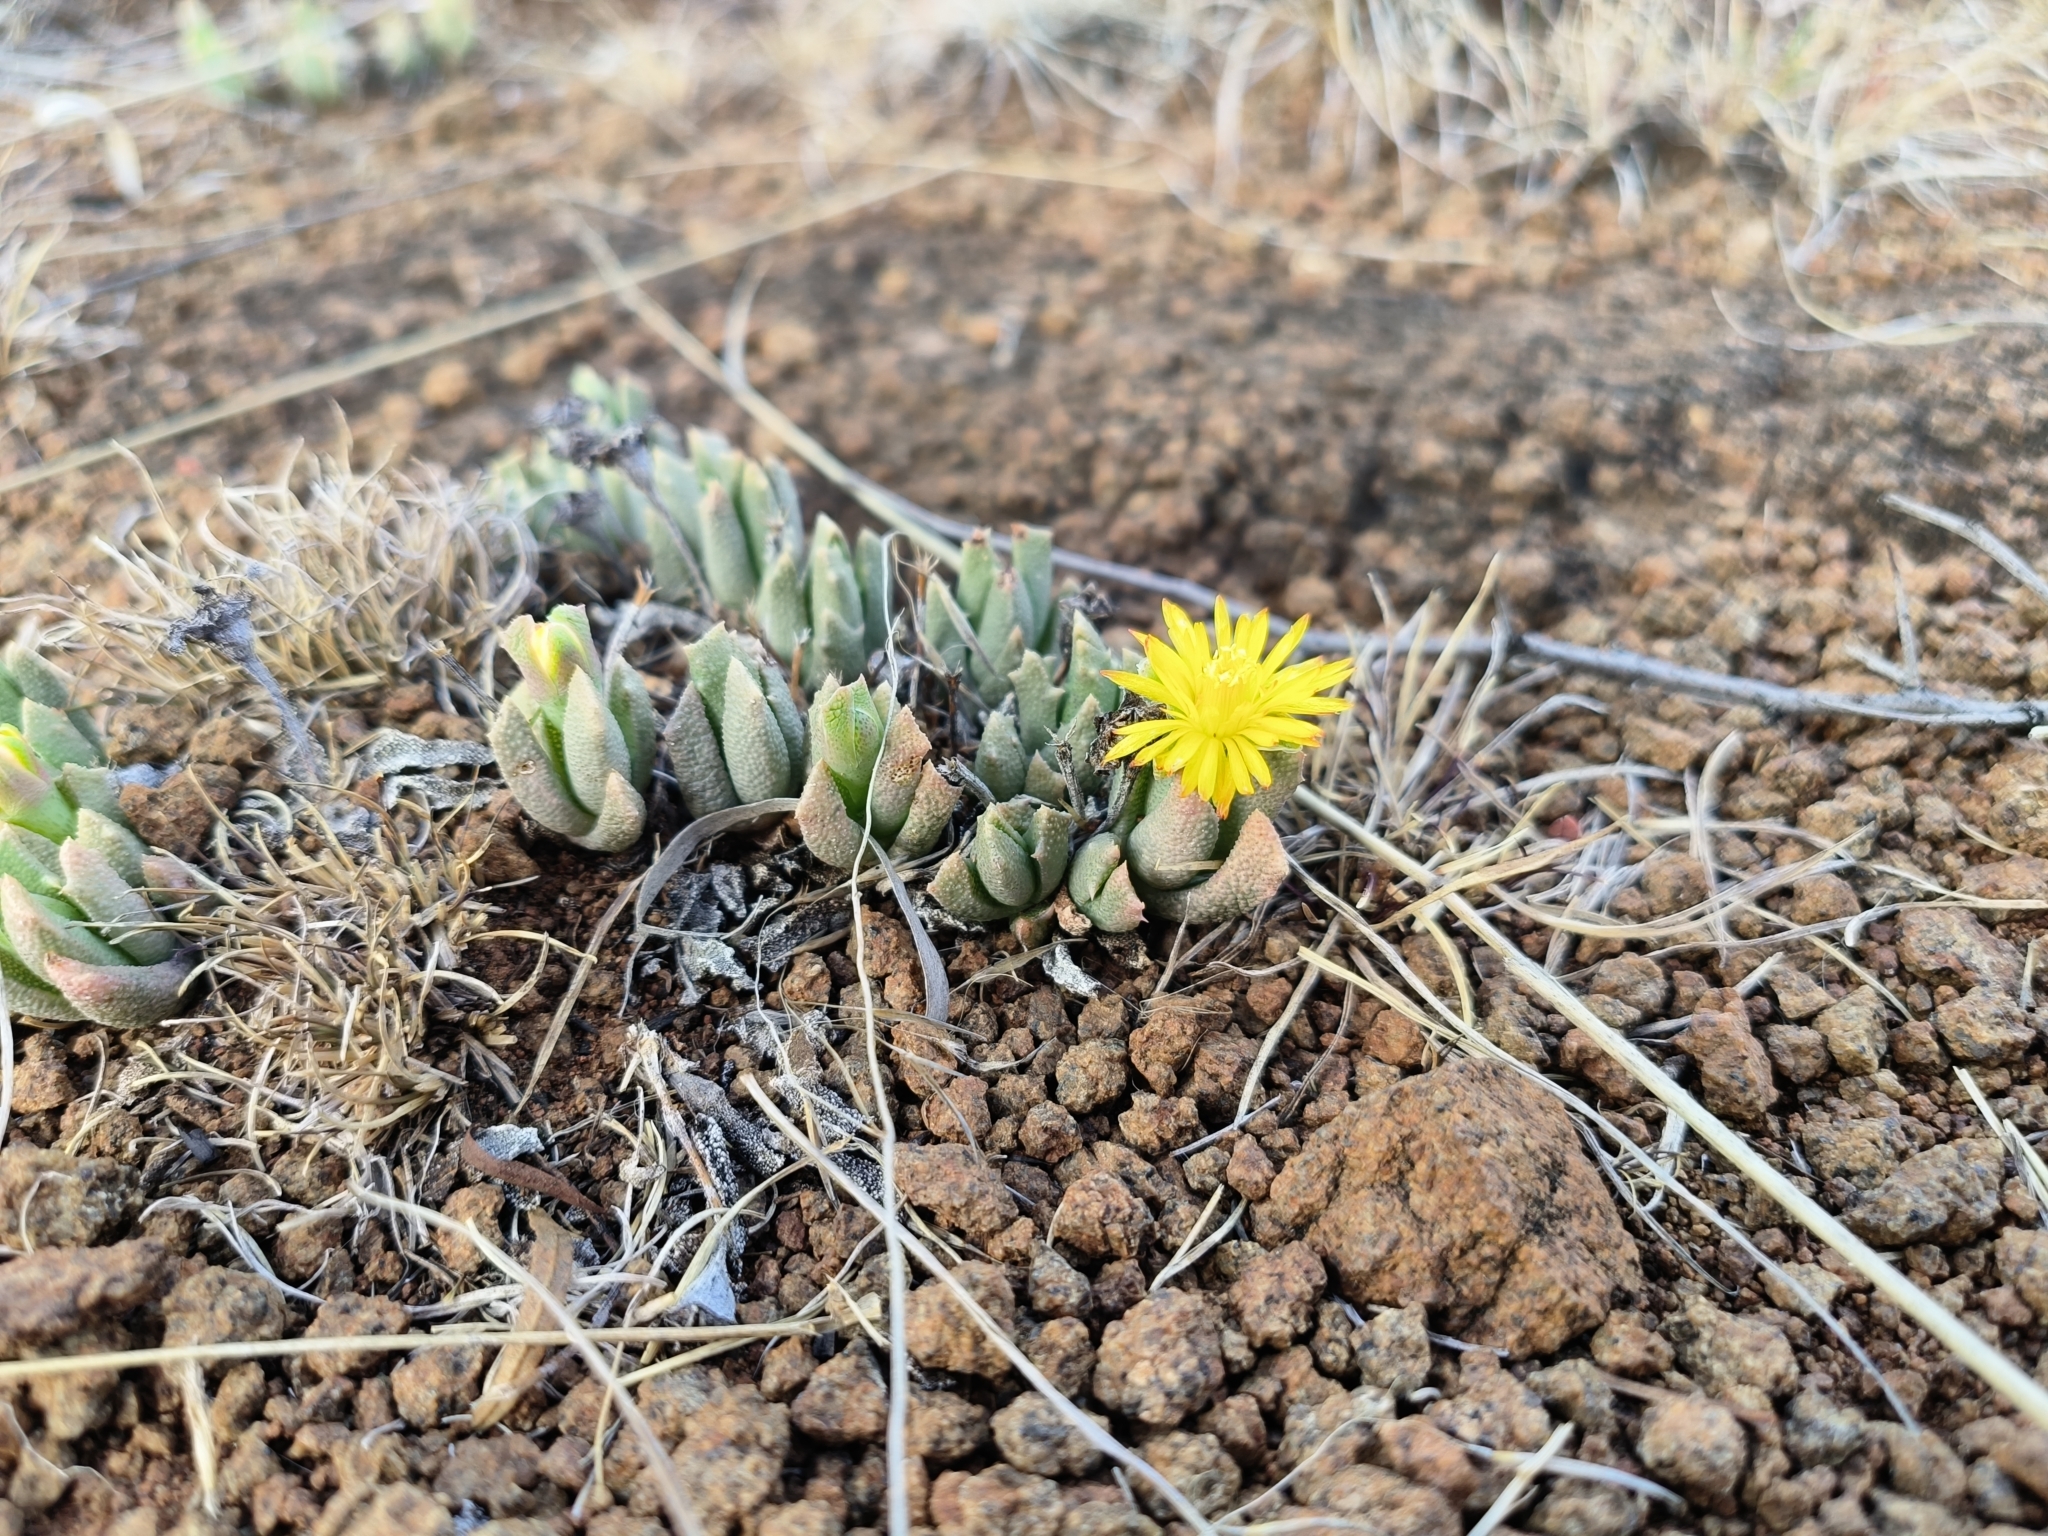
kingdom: Plantae
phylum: Tracheophyta
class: Magnoliopsida
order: Caryophyllales
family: Aizoaceae
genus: Dracophilus
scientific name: Dracophilus Chasmatophyllum musculinum
